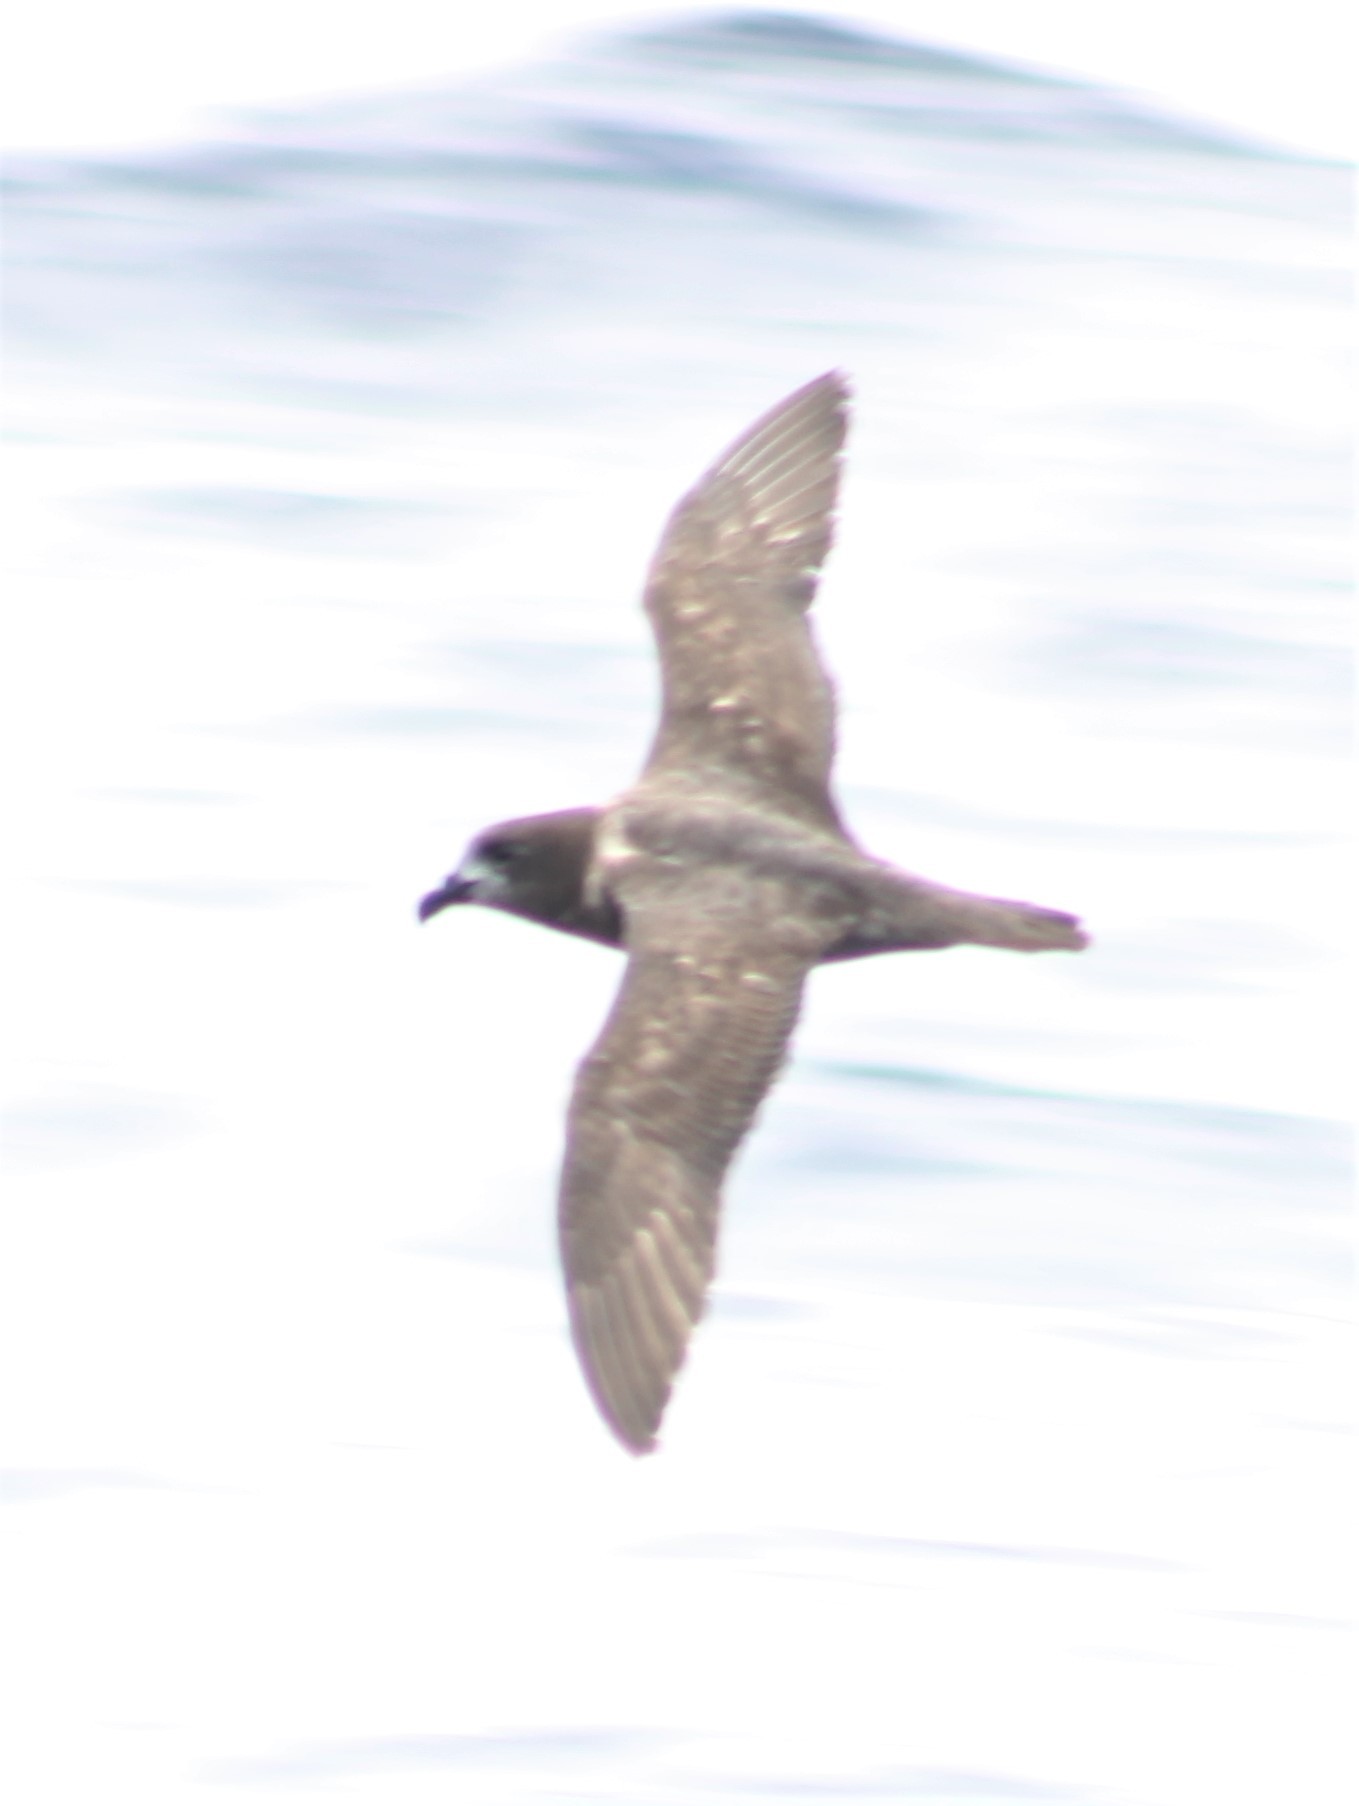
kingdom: Animalia
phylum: Chordata
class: Aves
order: Procellariiformes
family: Procellariidae
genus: Pterodroma
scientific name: Pterodroma solandri
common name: Providence petrel
